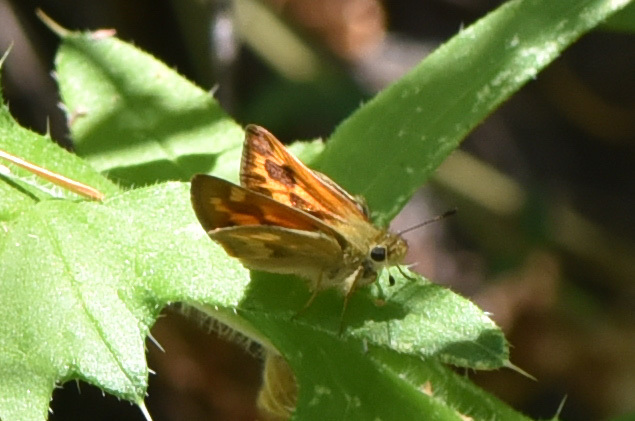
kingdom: Animalia
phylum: Arthropoda
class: Insecta
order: Lepidoptera
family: Hesperiidae
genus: Ochlodes
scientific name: Ochlodes sylvanoides
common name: Woodland skipper
